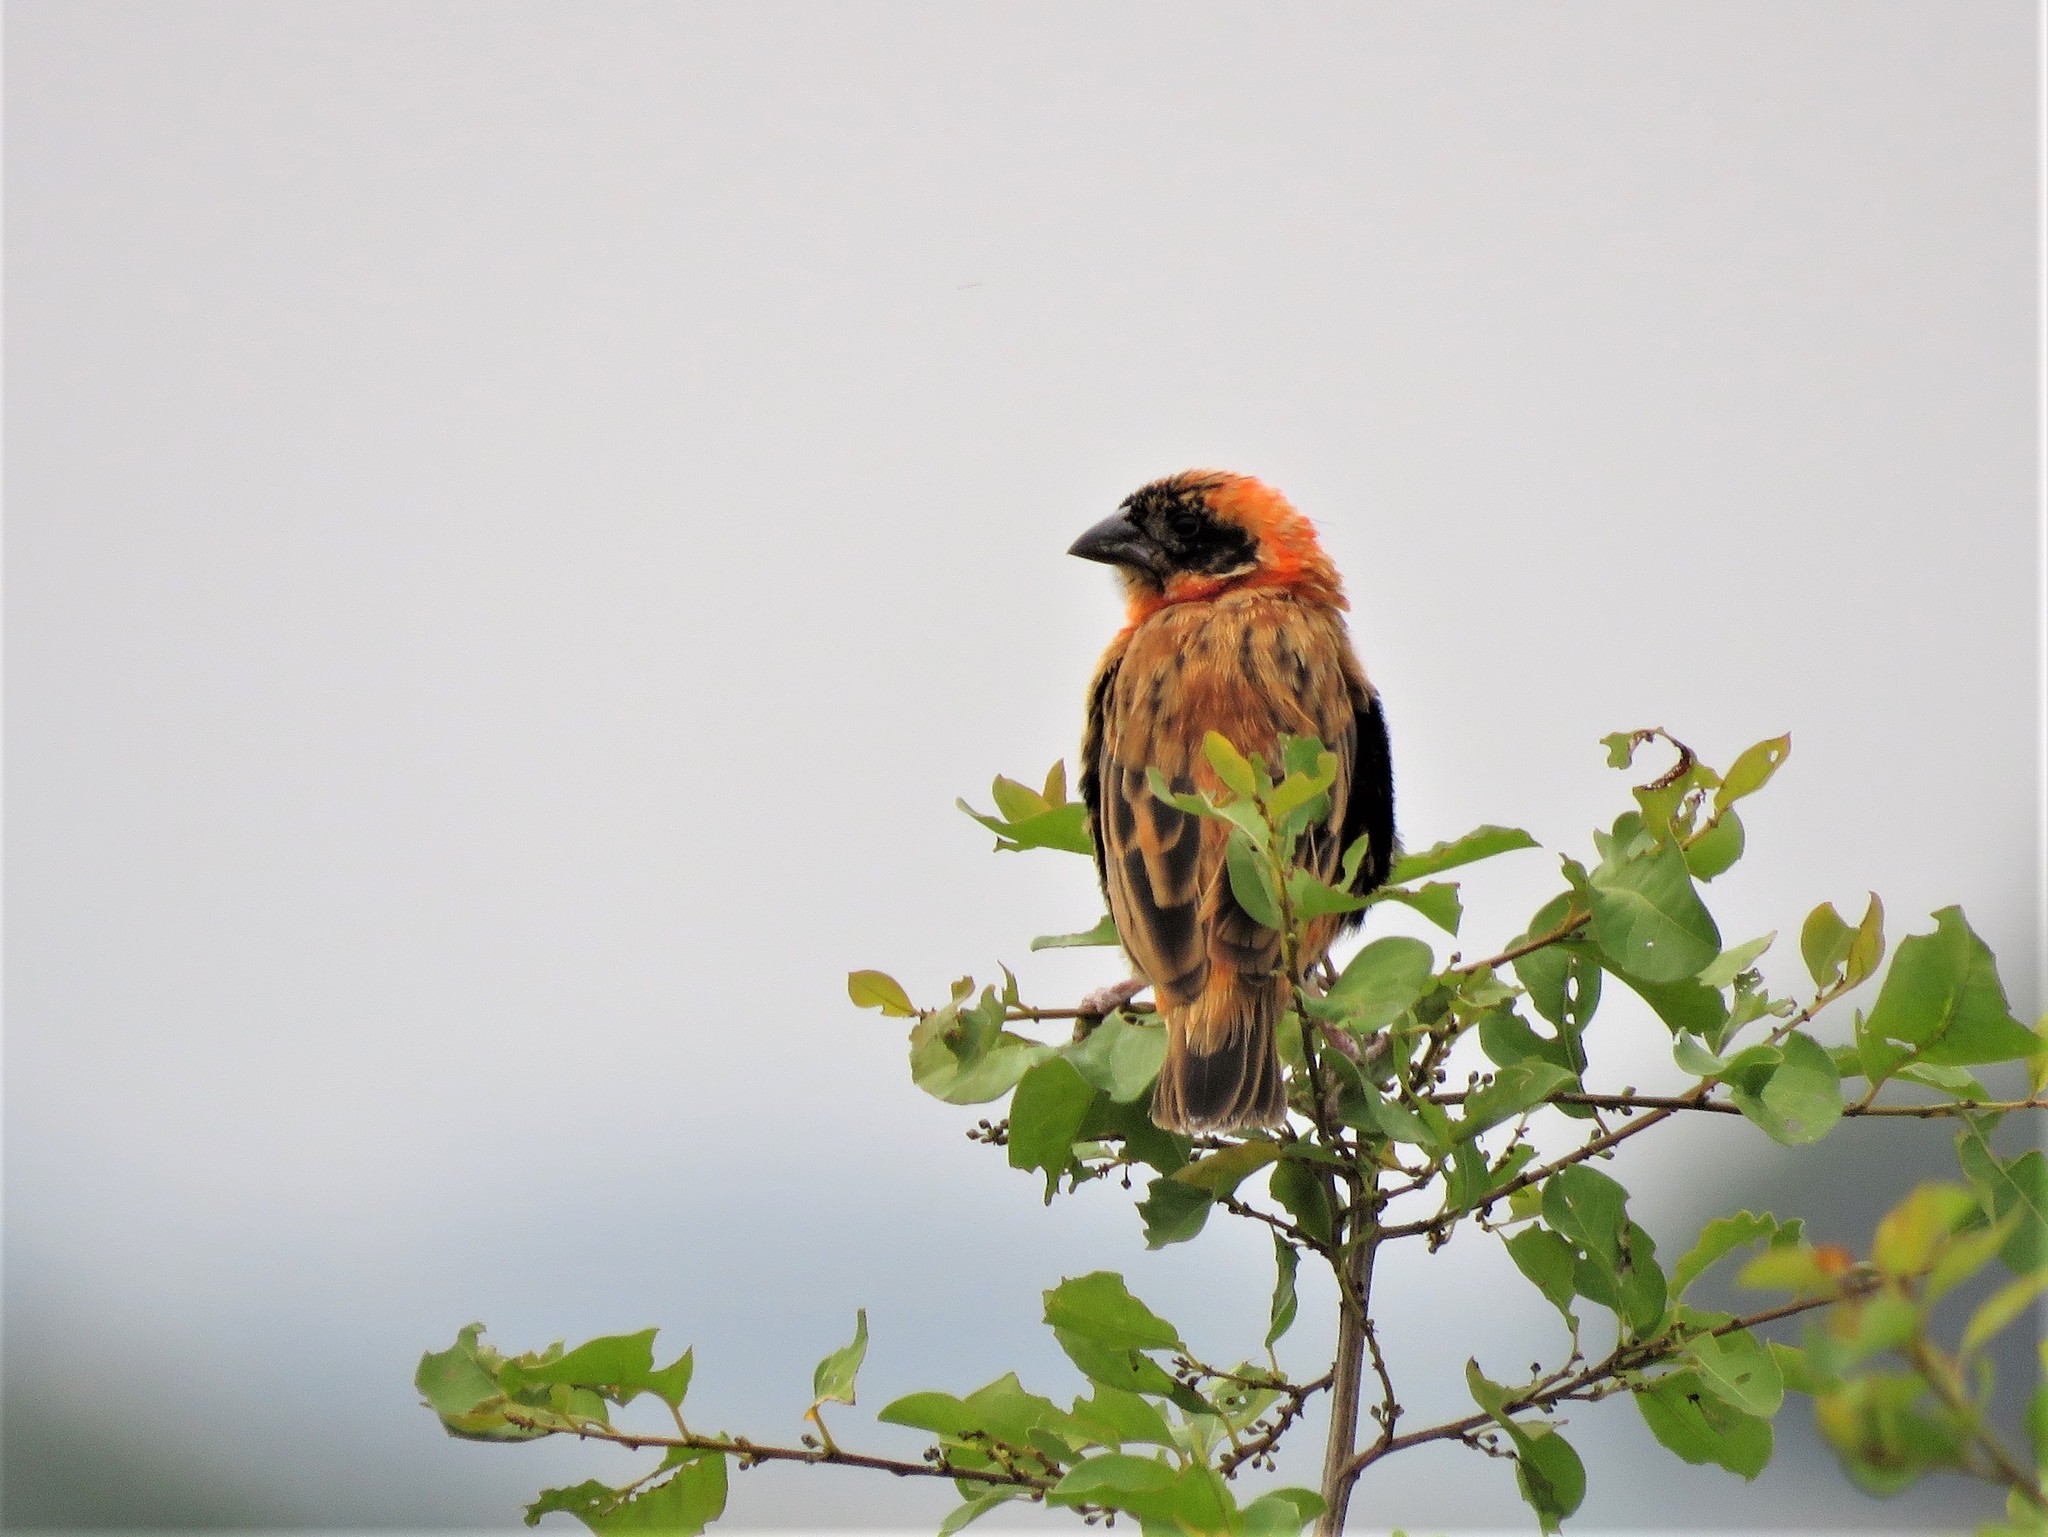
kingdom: Animalia
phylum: Chordata
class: Aves
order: Passeriformes
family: Ploceidae
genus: Euplectes
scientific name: Euplectes orix
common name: Southern red bishop
